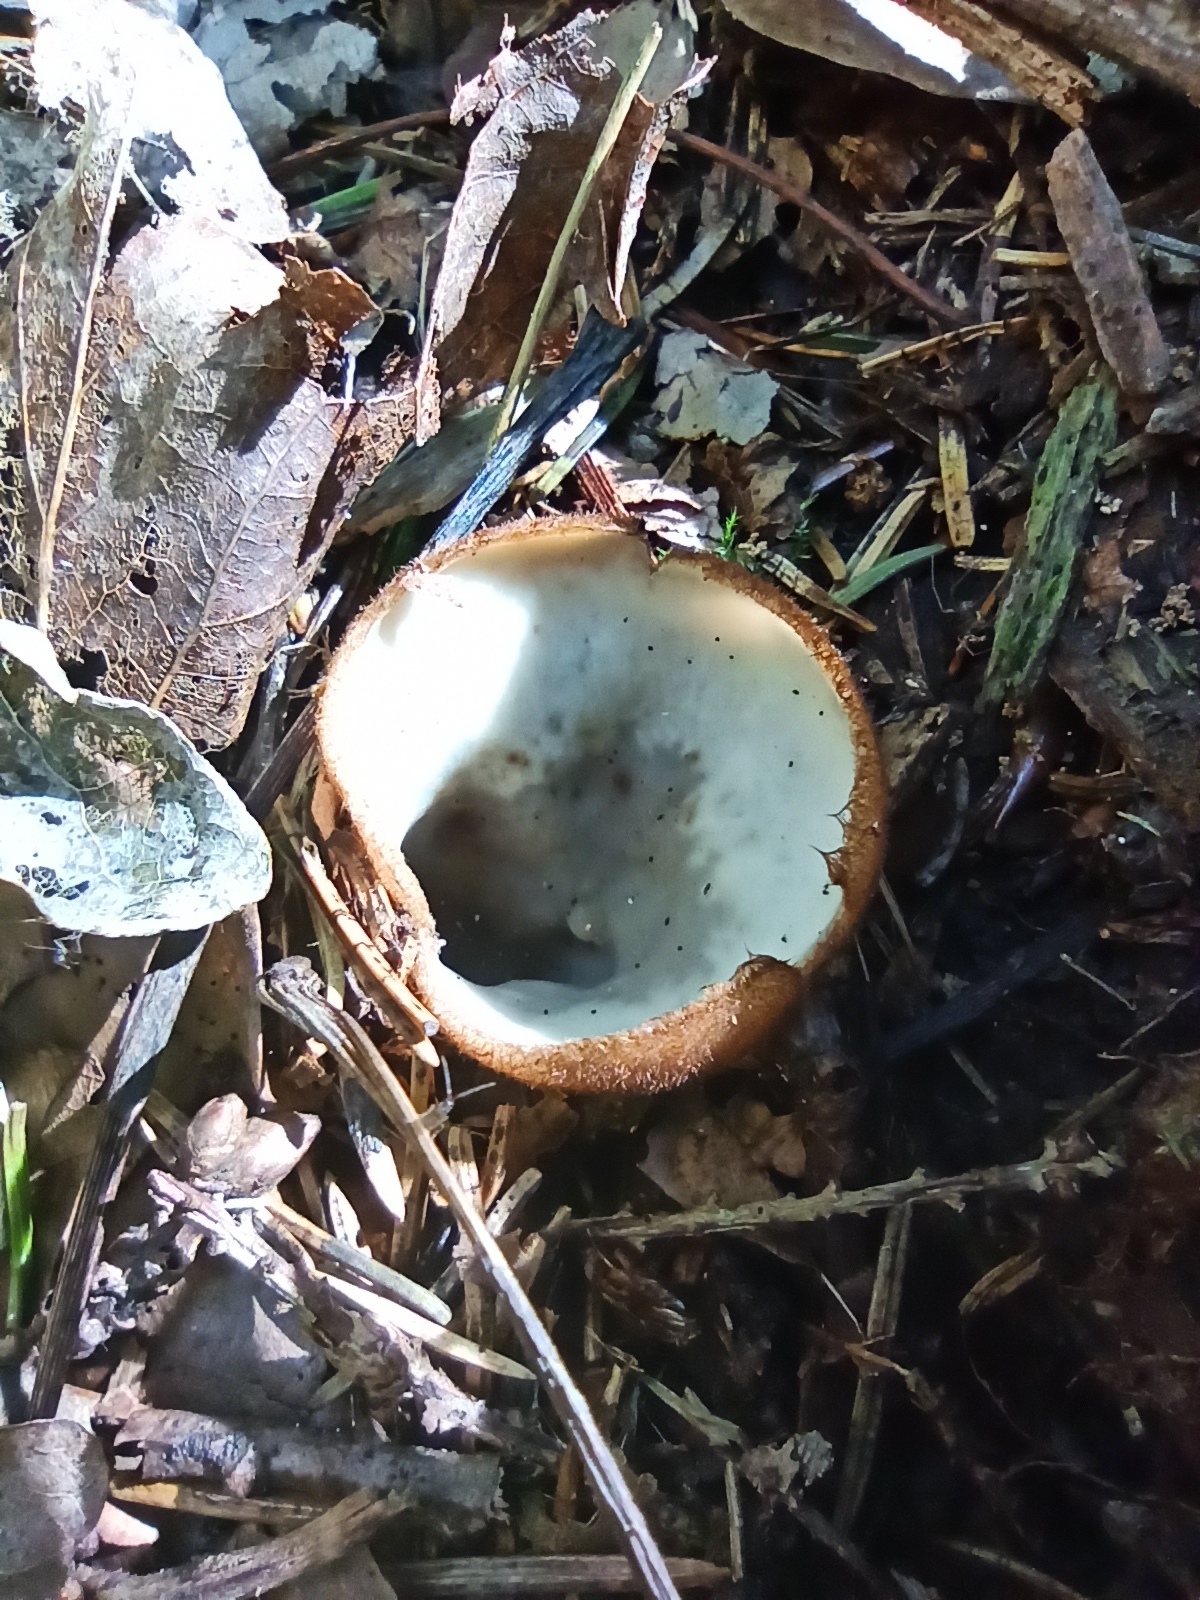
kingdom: Fungi
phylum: Ascomycota
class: Pezizomycetes
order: Pezizales
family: Pyronemataceae
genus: Humaria
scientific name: Humaria hemisphaerica
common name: Glazed cup
